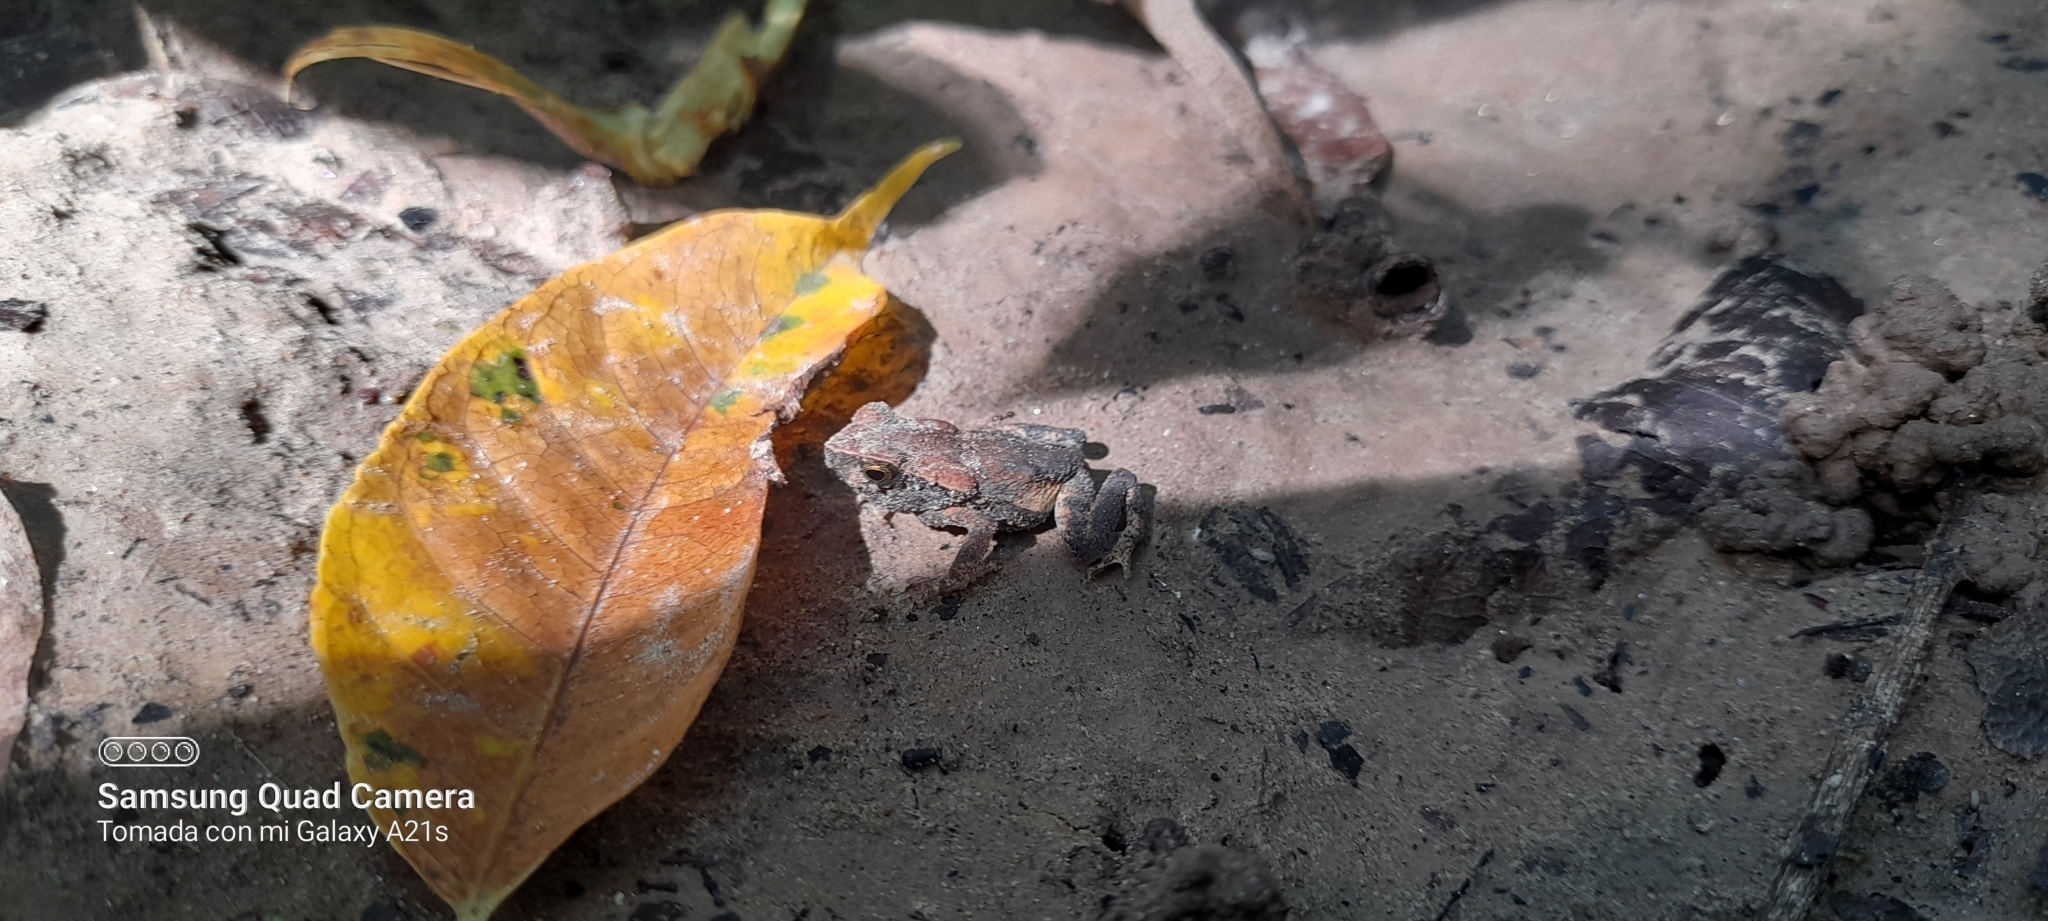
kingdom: Animalia
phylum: Chordata
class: Amphibia
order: Anura
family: Bufonidae
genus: Rhaebo
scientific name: Rhaebo haematiticus
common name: Truando toad
